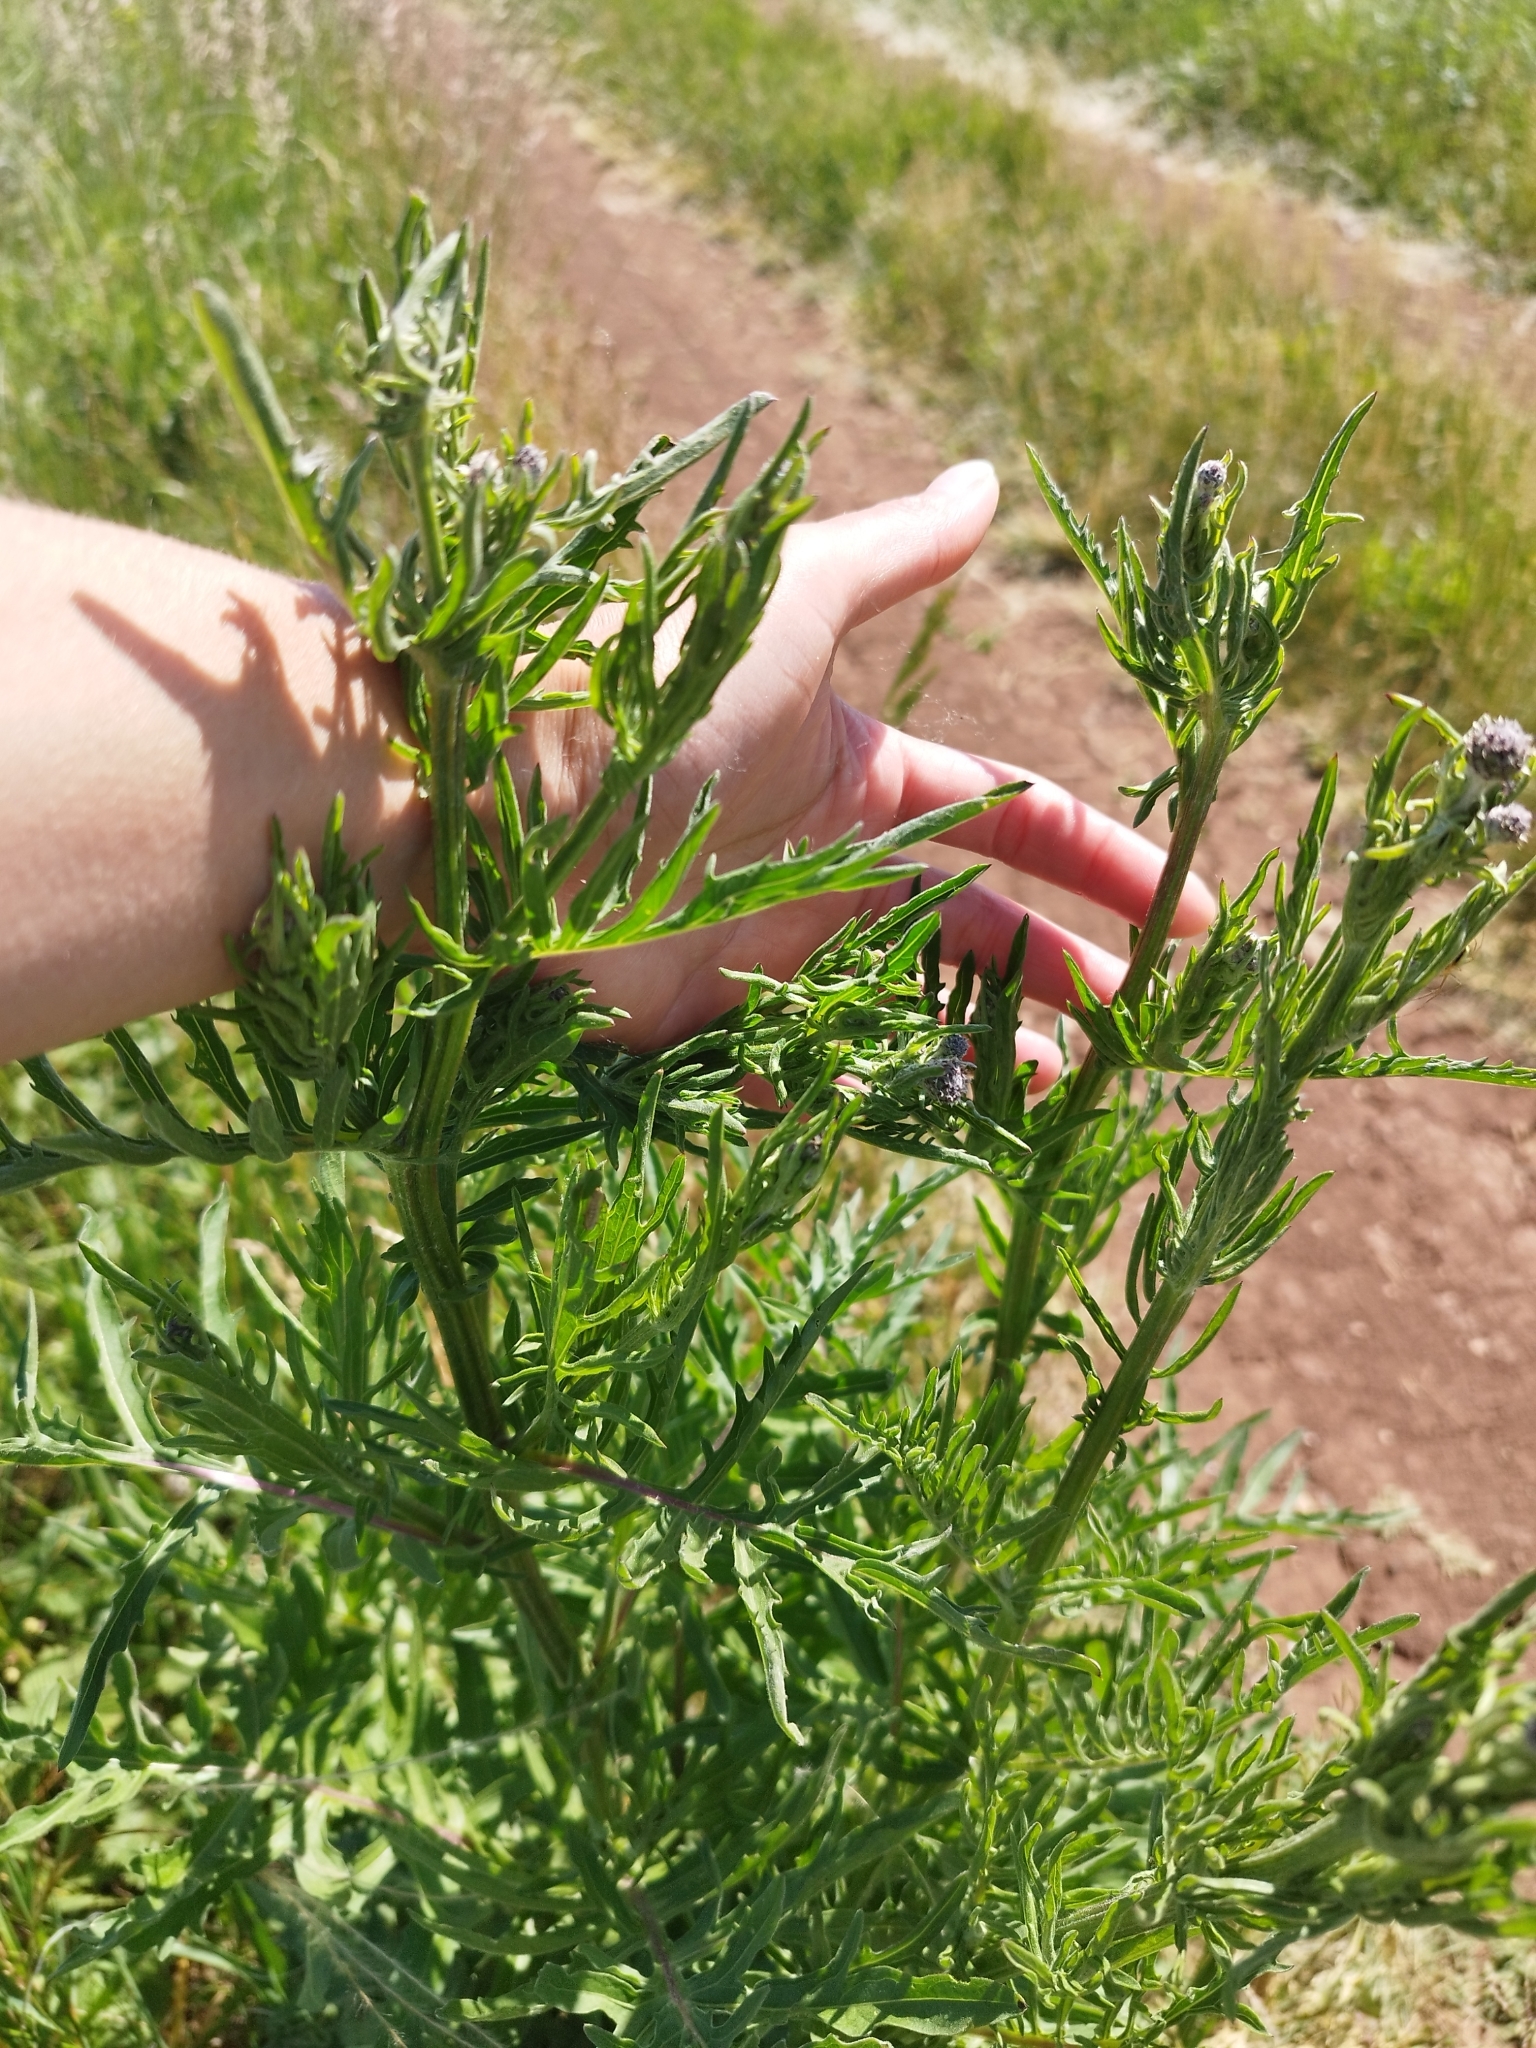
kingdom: Plantae
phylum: Tracheophyta
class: Magnoliopsida
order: Asterales
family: Asteraceae
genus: Centaurea
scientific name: Centaurea scabiosa
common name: Greater knapweed
